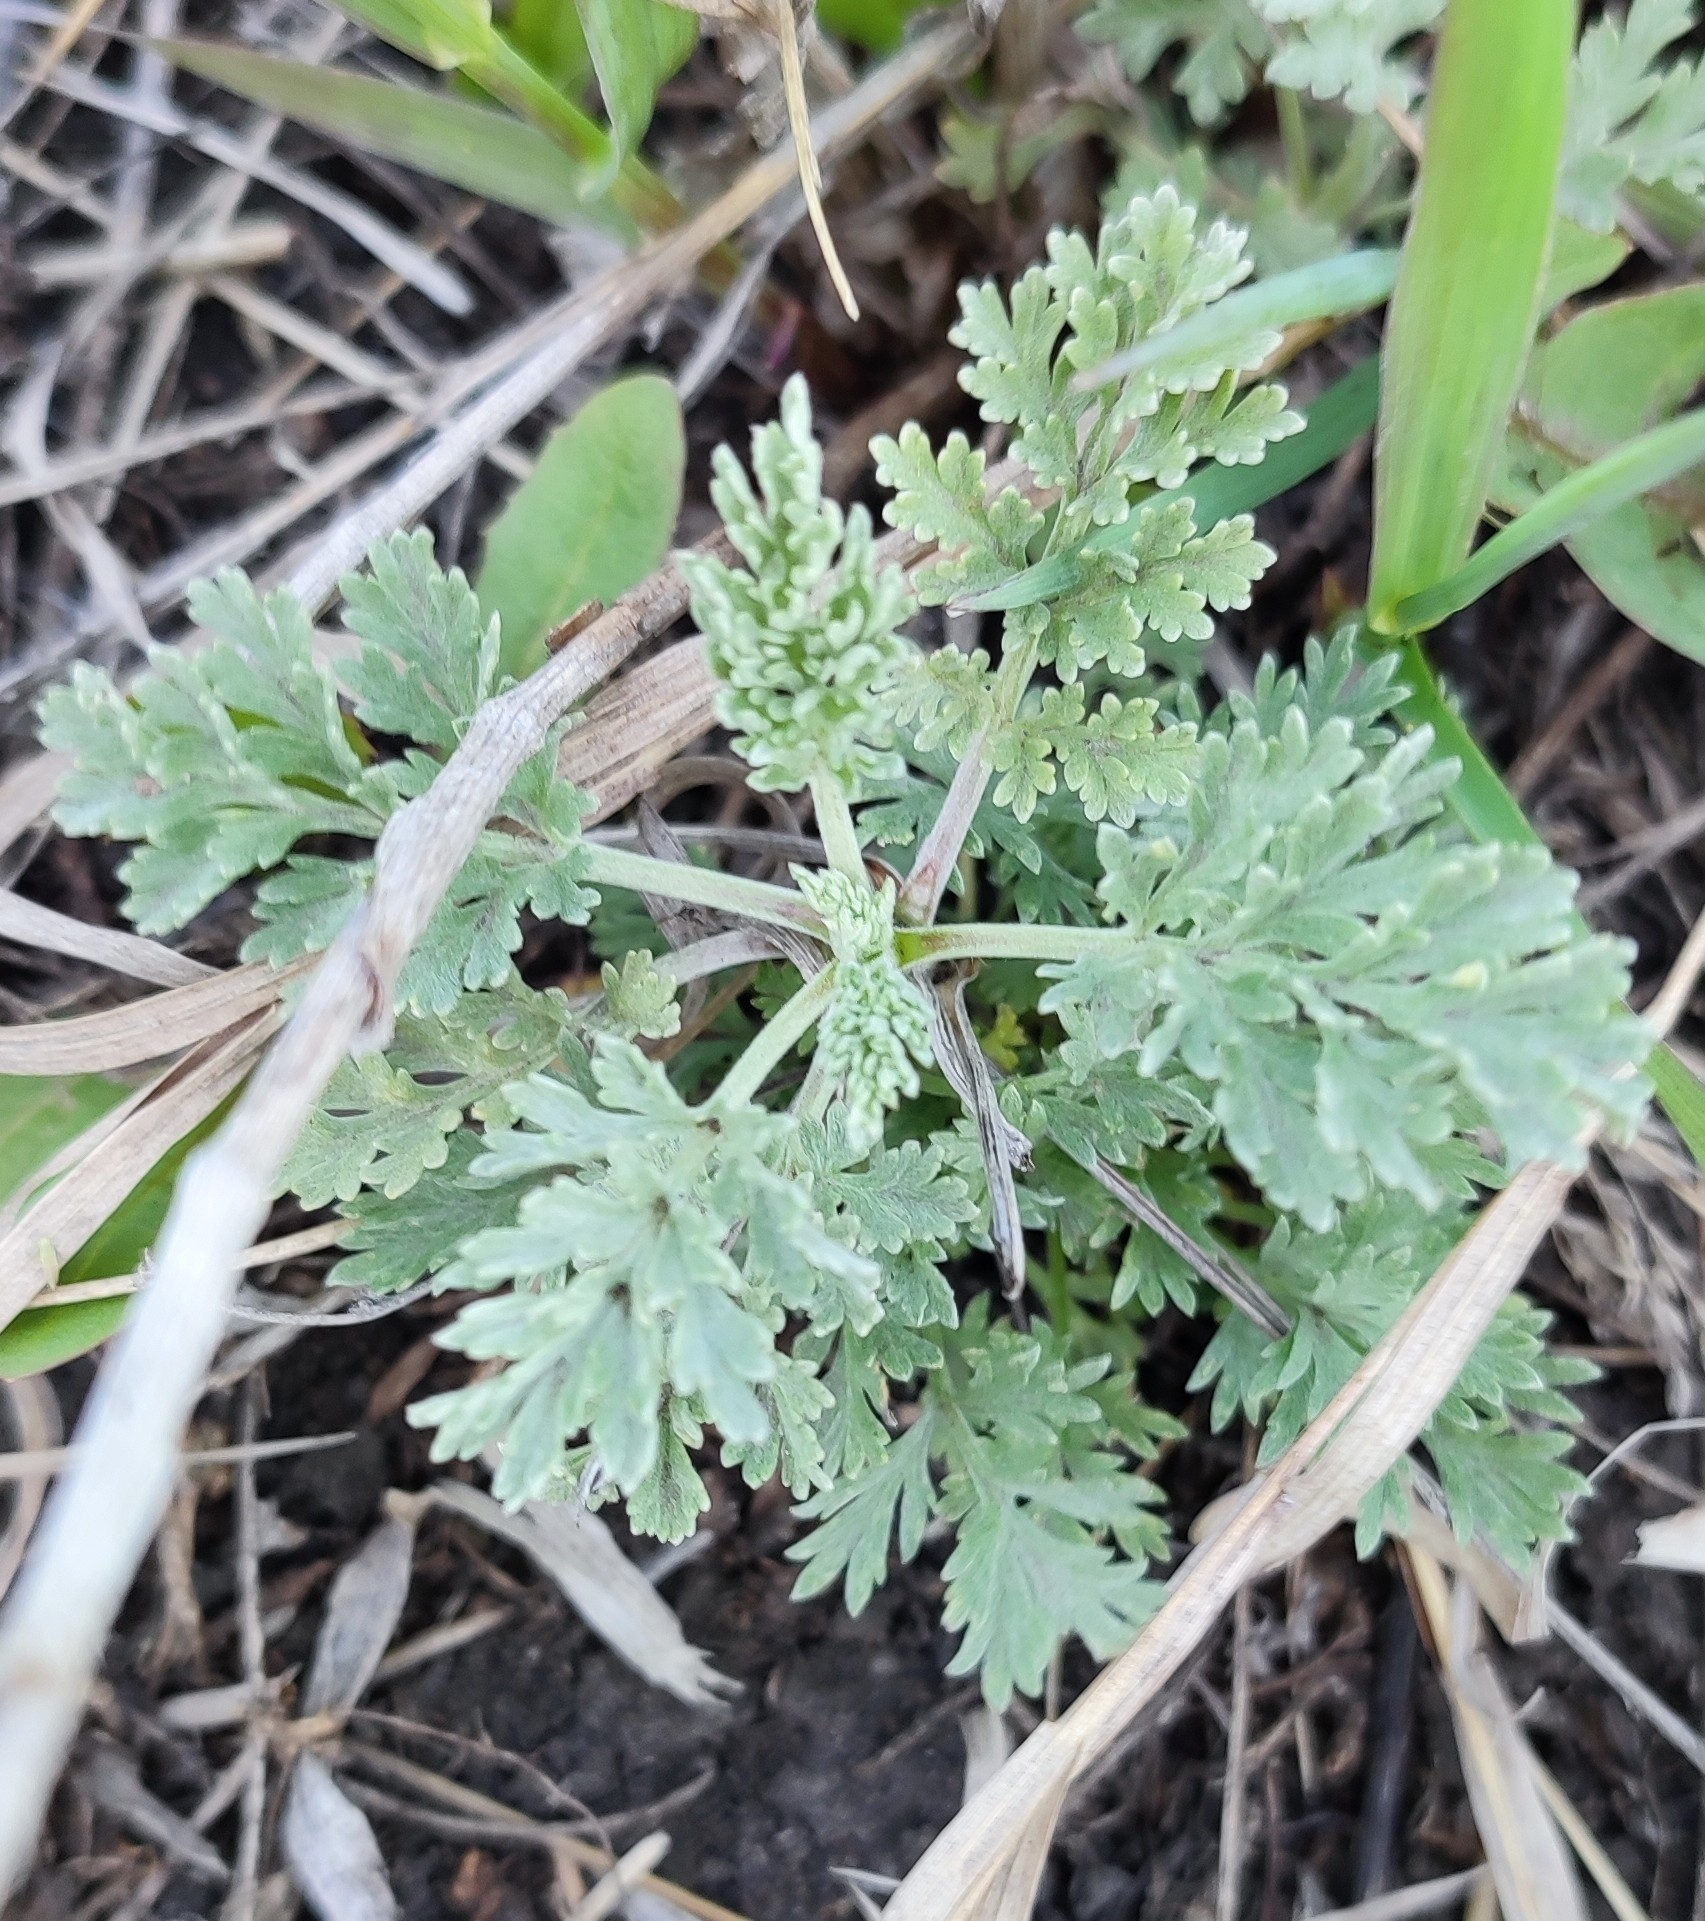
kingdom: Plantae
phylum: Tracheophyta
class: Magnoliopsida
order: Asterales
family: Asteraceae
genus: Artemisia
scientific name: Artemisia absinthium
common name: Wormwood
